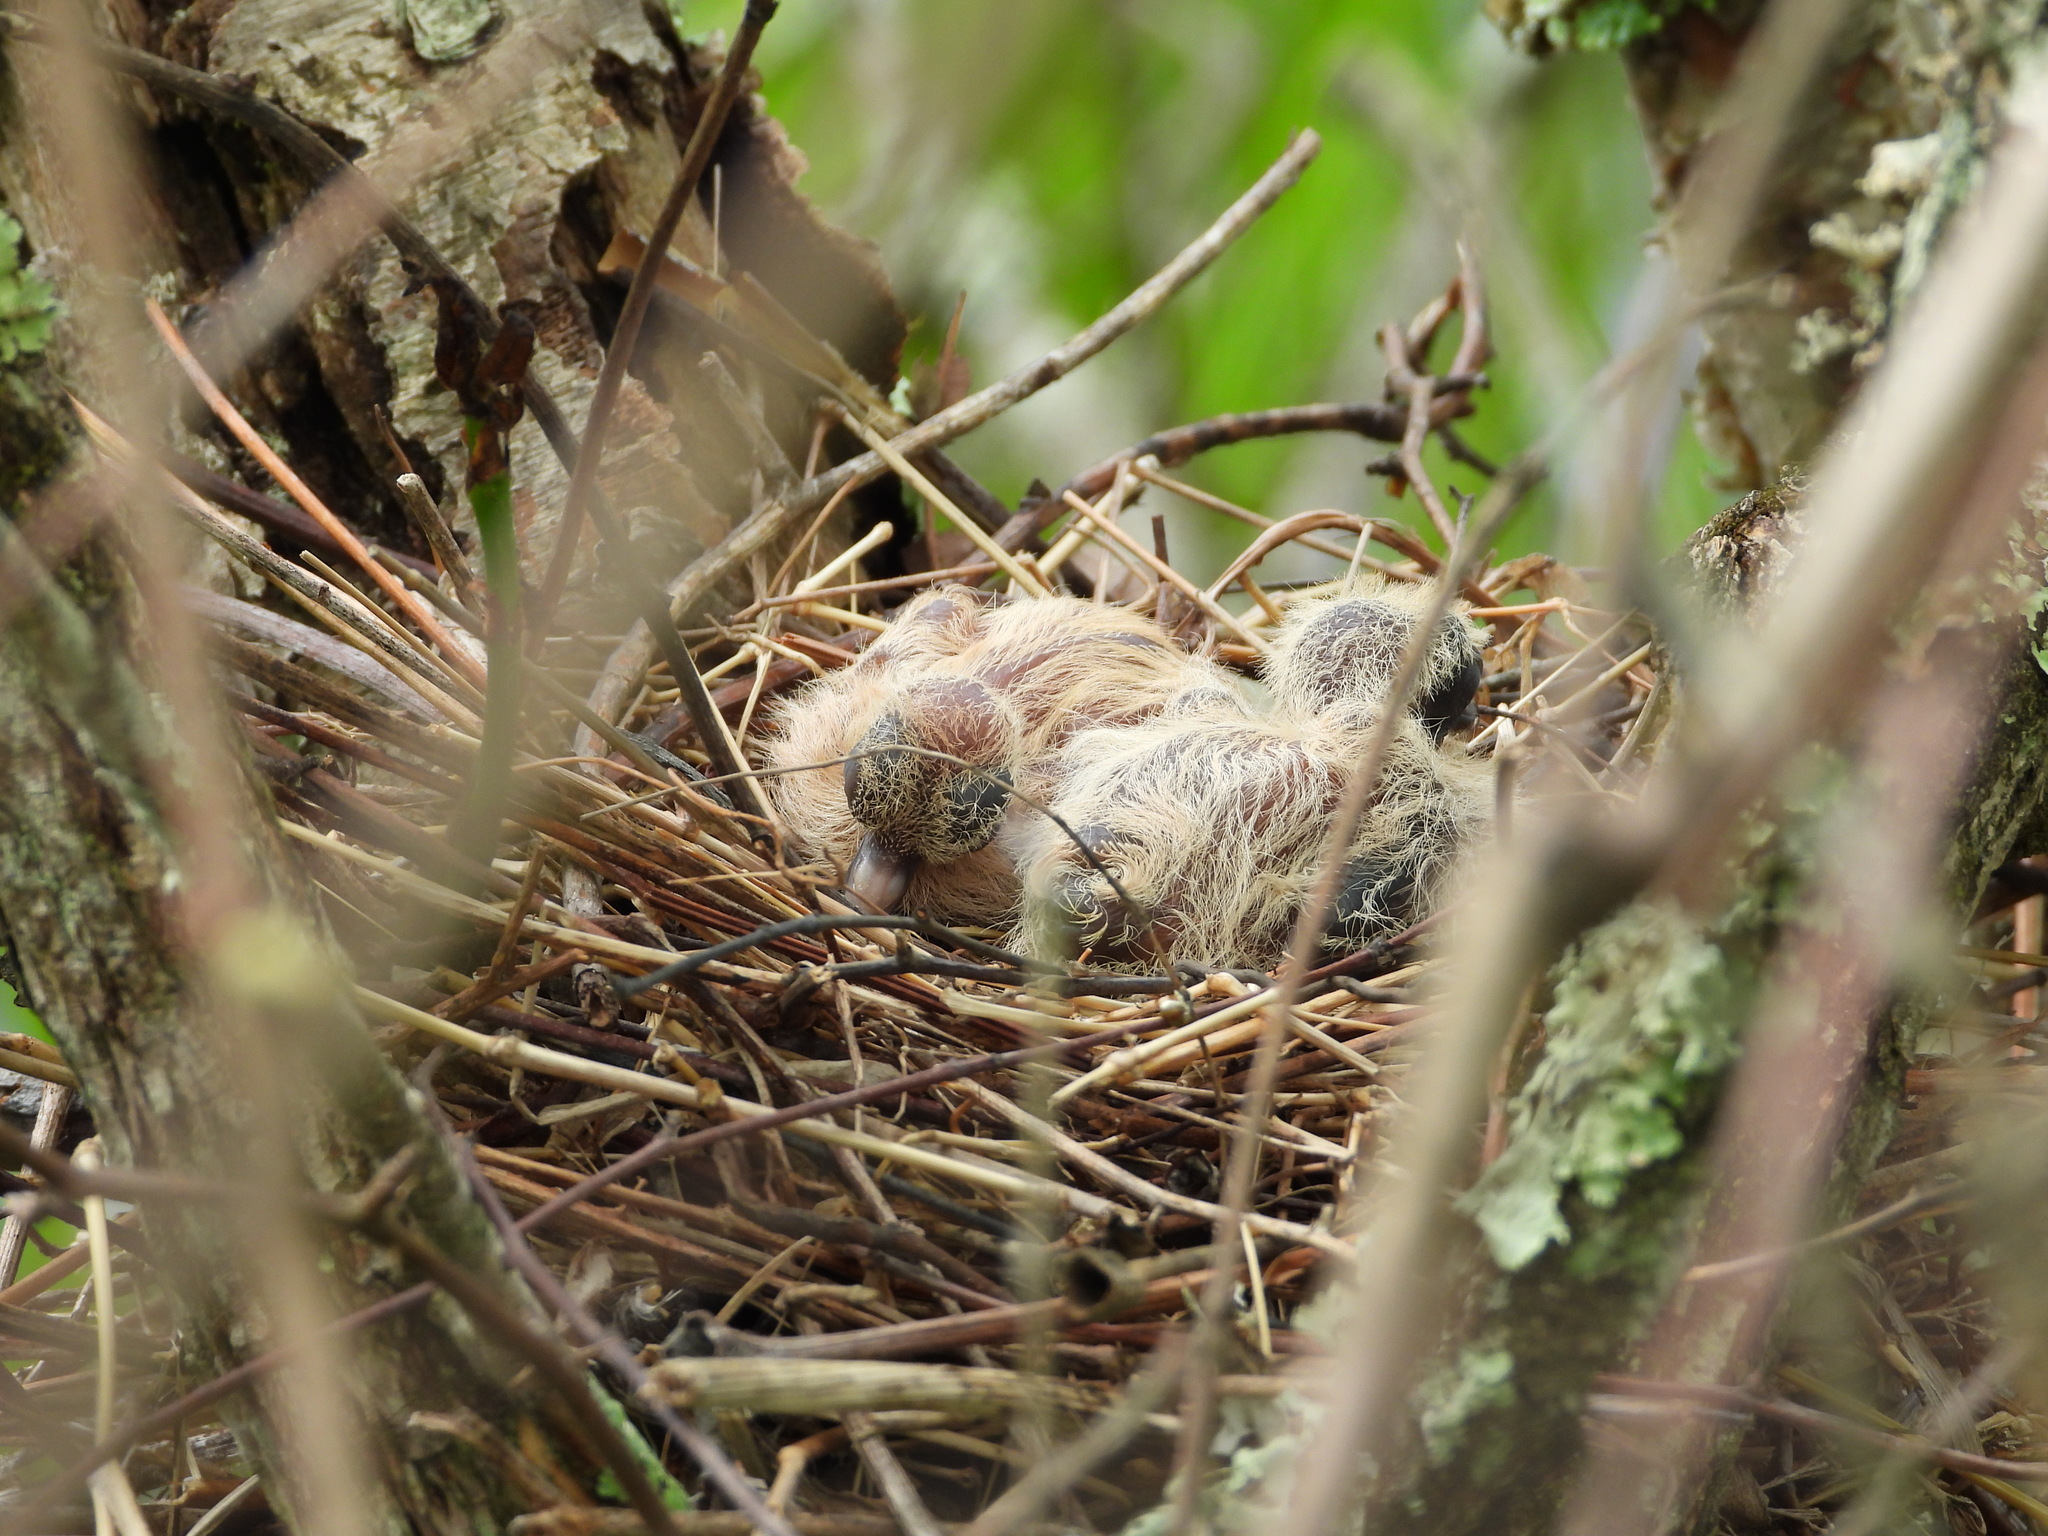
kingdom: Animalia
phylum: Chordata
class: Aves
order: Columbiformes
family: Columbidae
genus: Zenaida
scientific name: Zenaida macroura
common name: Mourning dove
